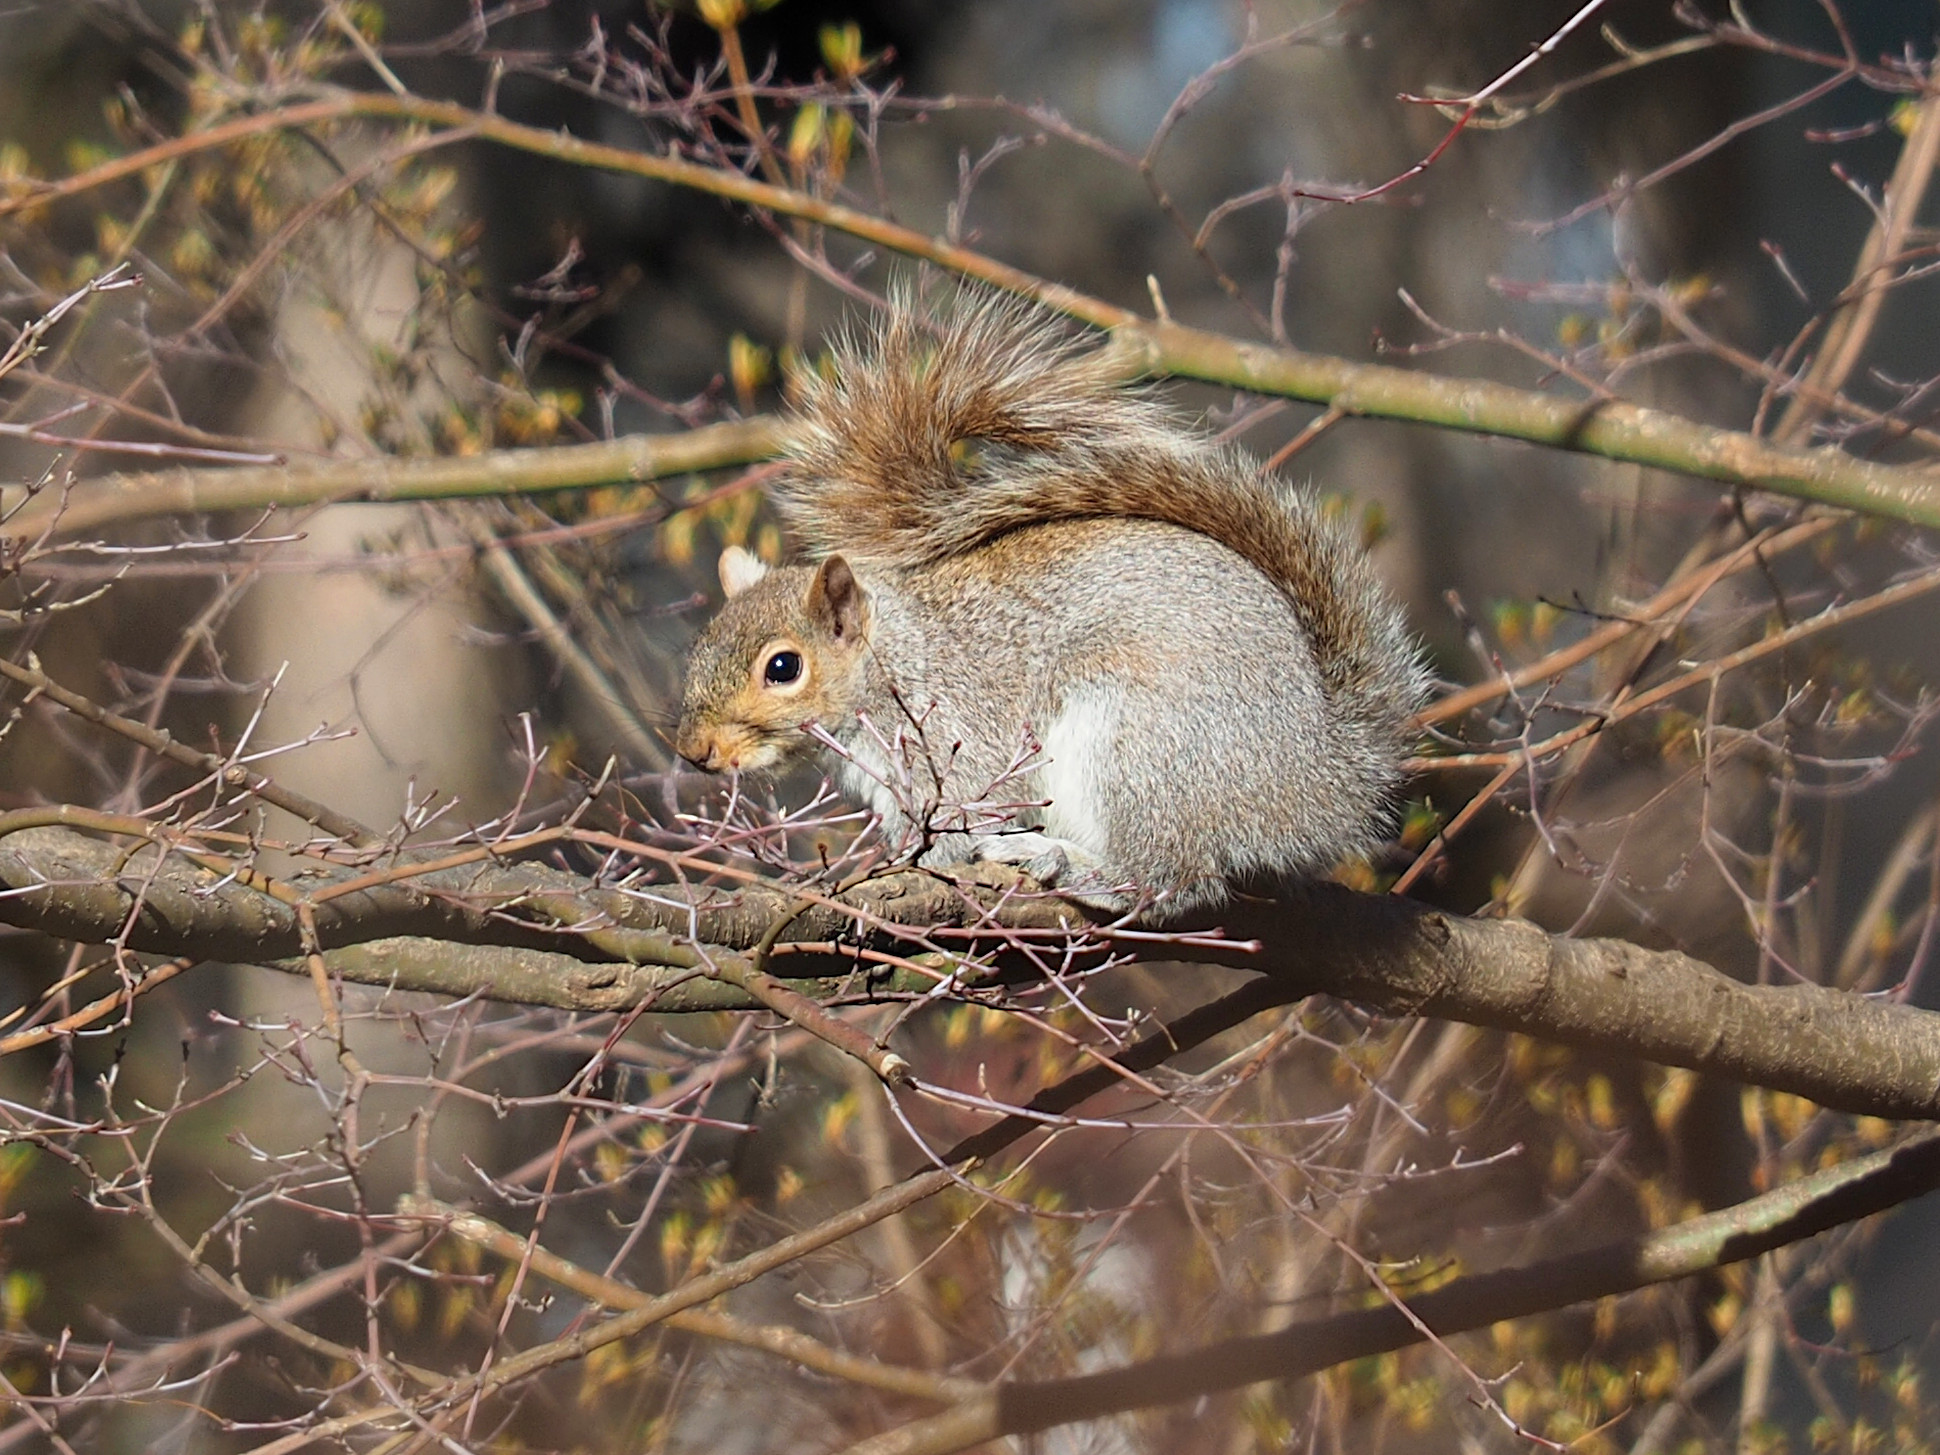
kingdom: Animalia
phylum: Chordata
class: Mammalia
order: Rodentia
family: Sciuridae
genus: Sciurus
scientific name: Sciurus carolinensis
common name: Eastern gray squirrel
